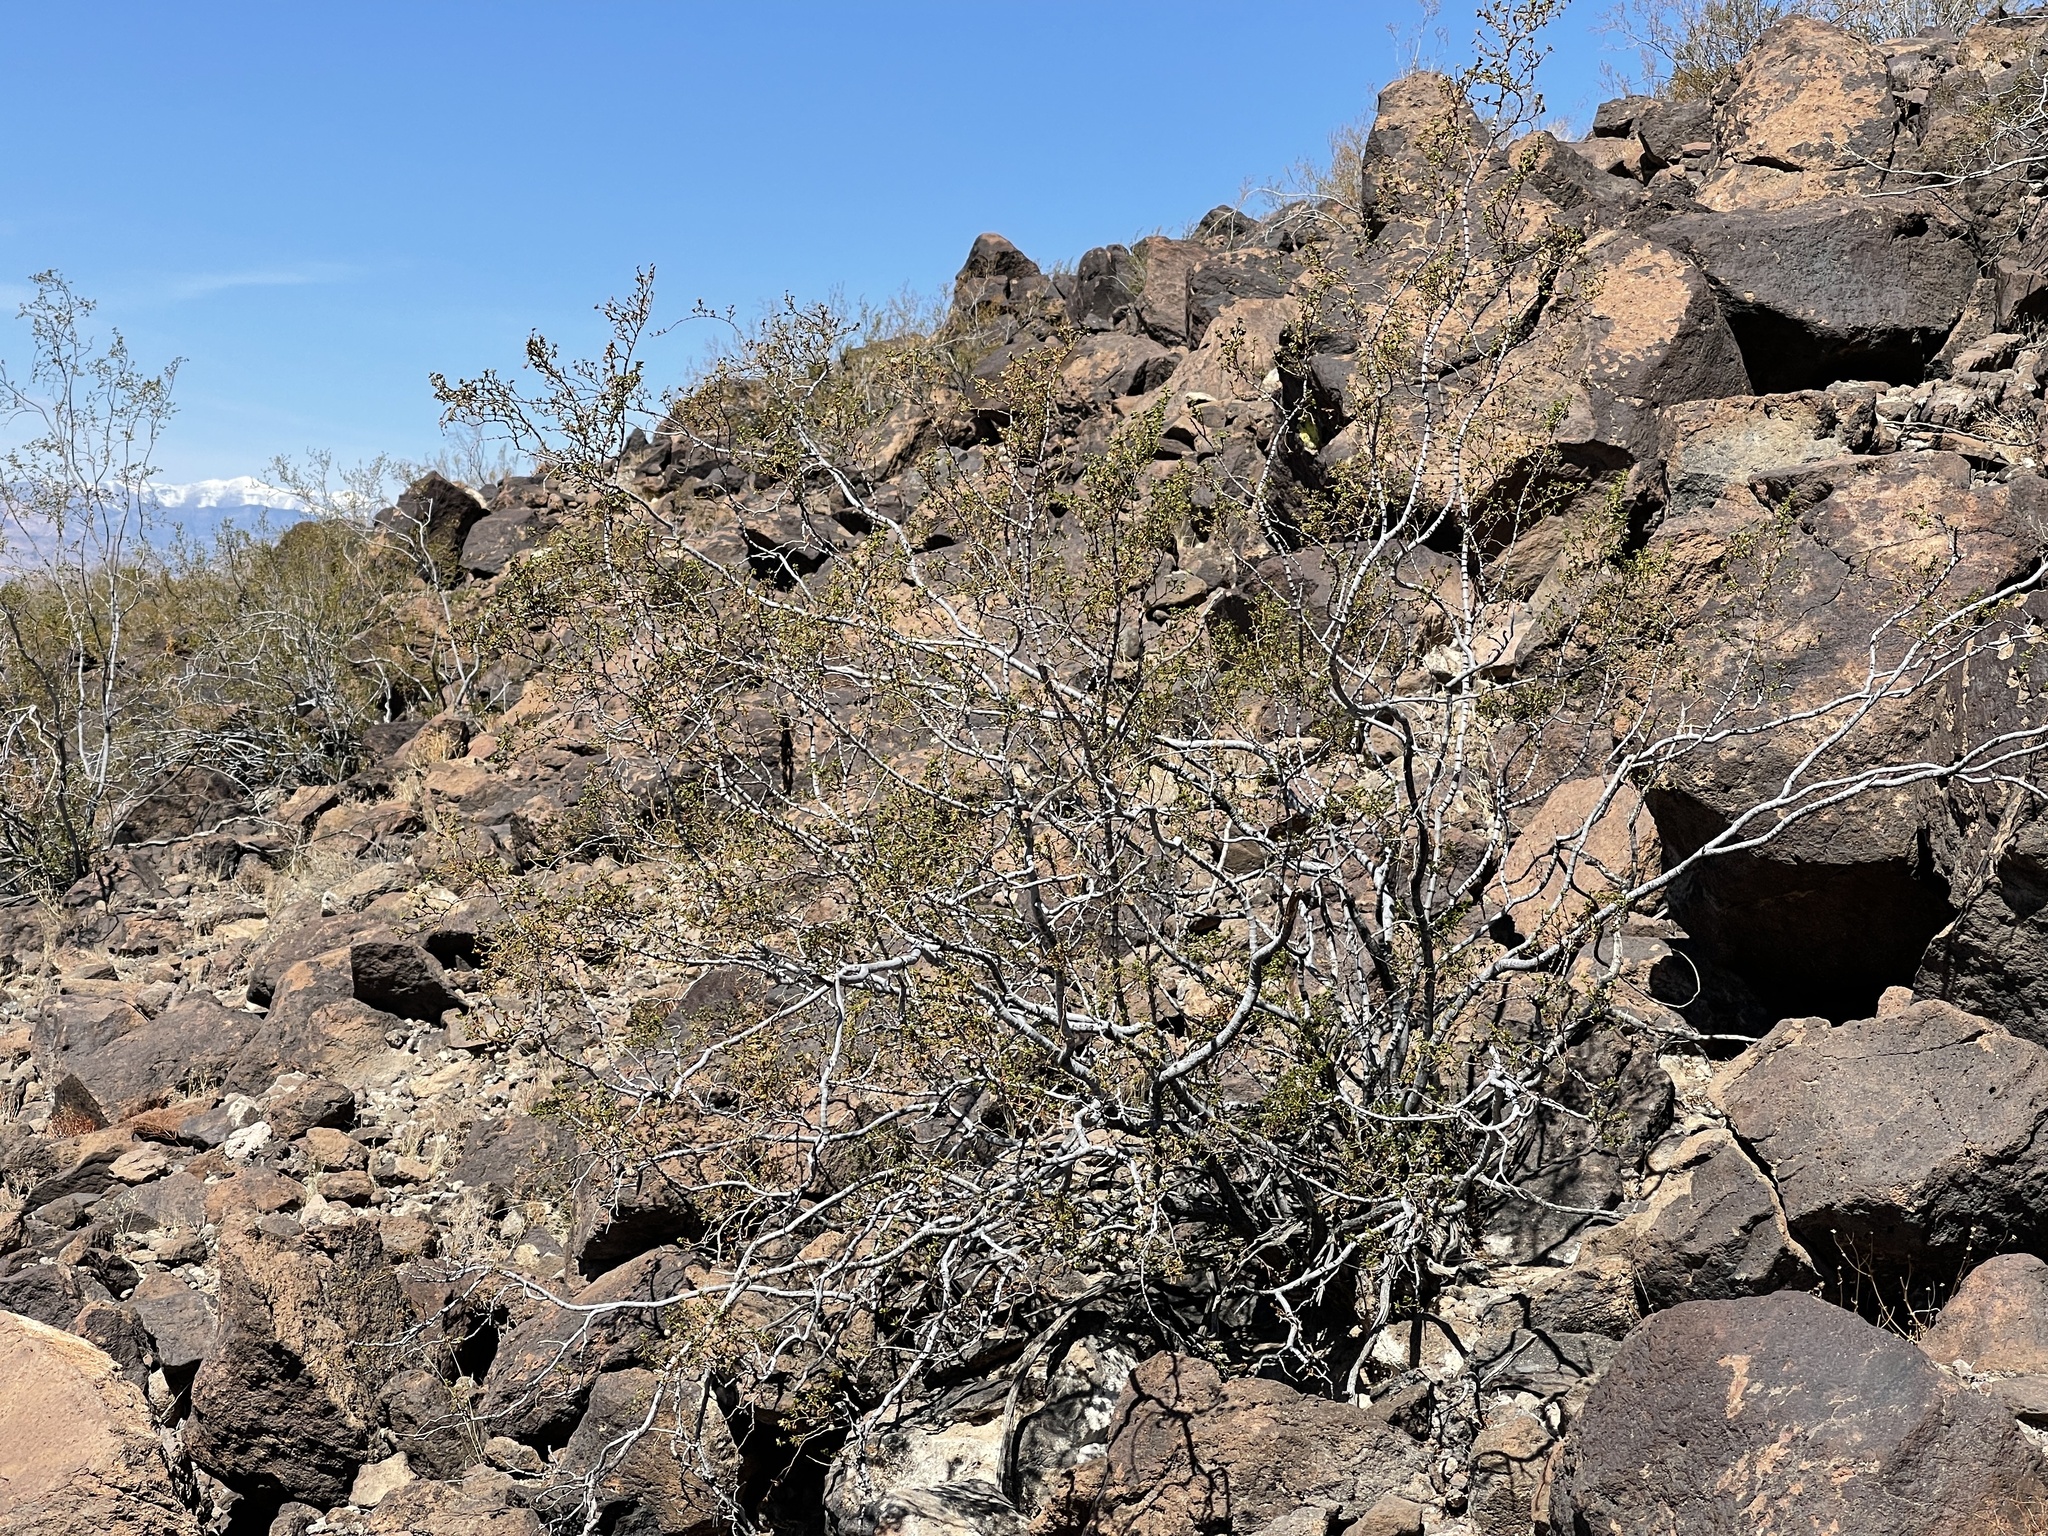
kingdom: Plantae
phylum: Tracheophyta
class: Magnoliopsida
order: Zygophyllales
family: Zygophyllaceae
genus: Larrea
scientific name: Larrea tridentata
